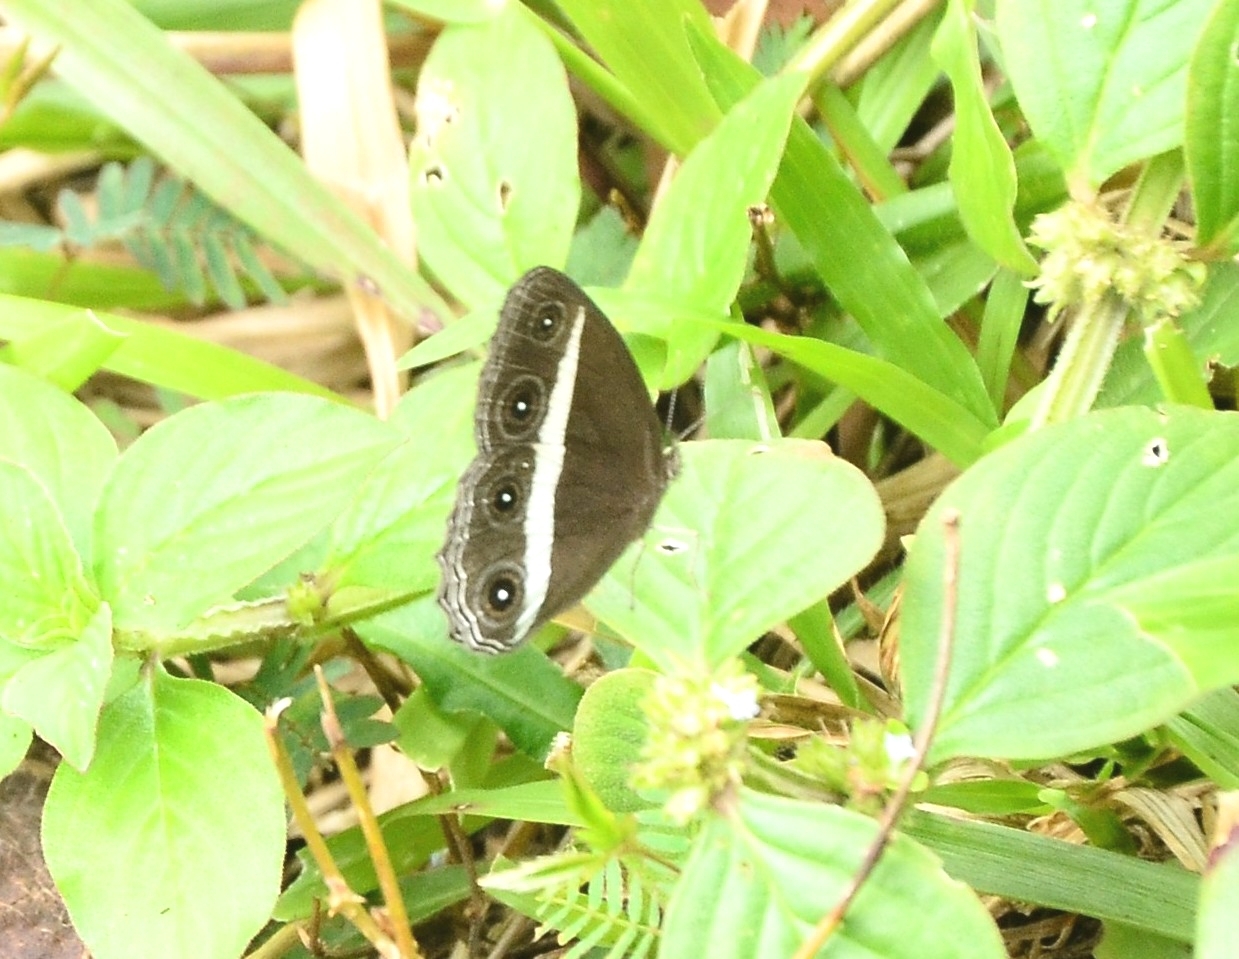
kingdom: Animalia
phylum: Arthropoda
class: Insecta
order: Lepidoptera
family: Nymphalidae
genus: Orsotriaena
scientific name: Orsotriaena medus
